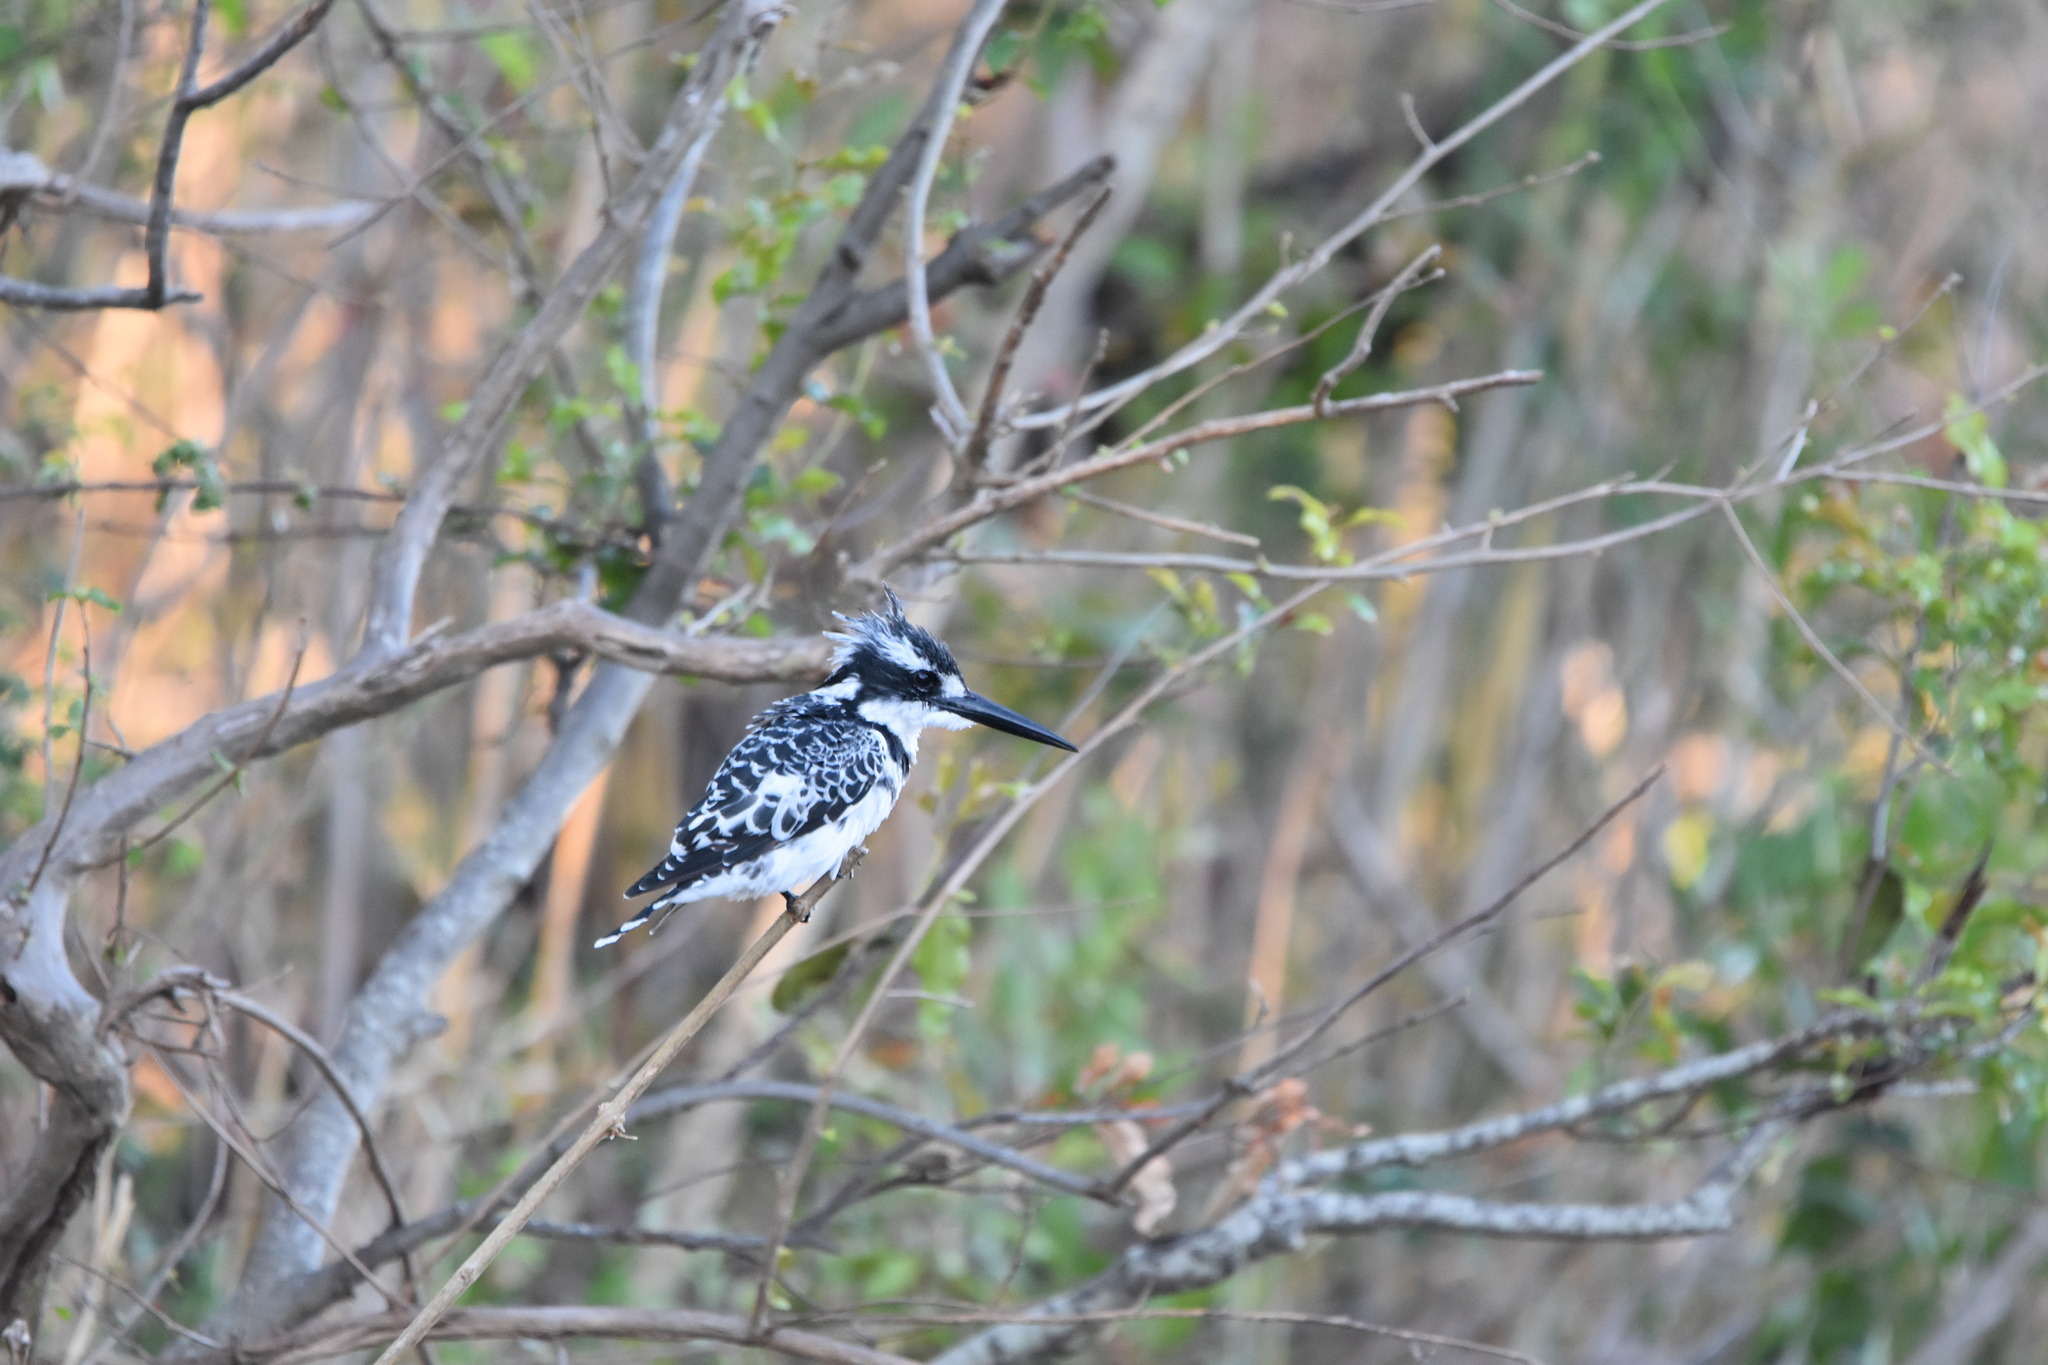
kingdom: Animalia
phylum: Chordata
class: Aves
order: Coraciiformes
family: Alcedinidae
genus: Ceryle
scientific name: Ceryle rudis
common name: Pied kingfisher
